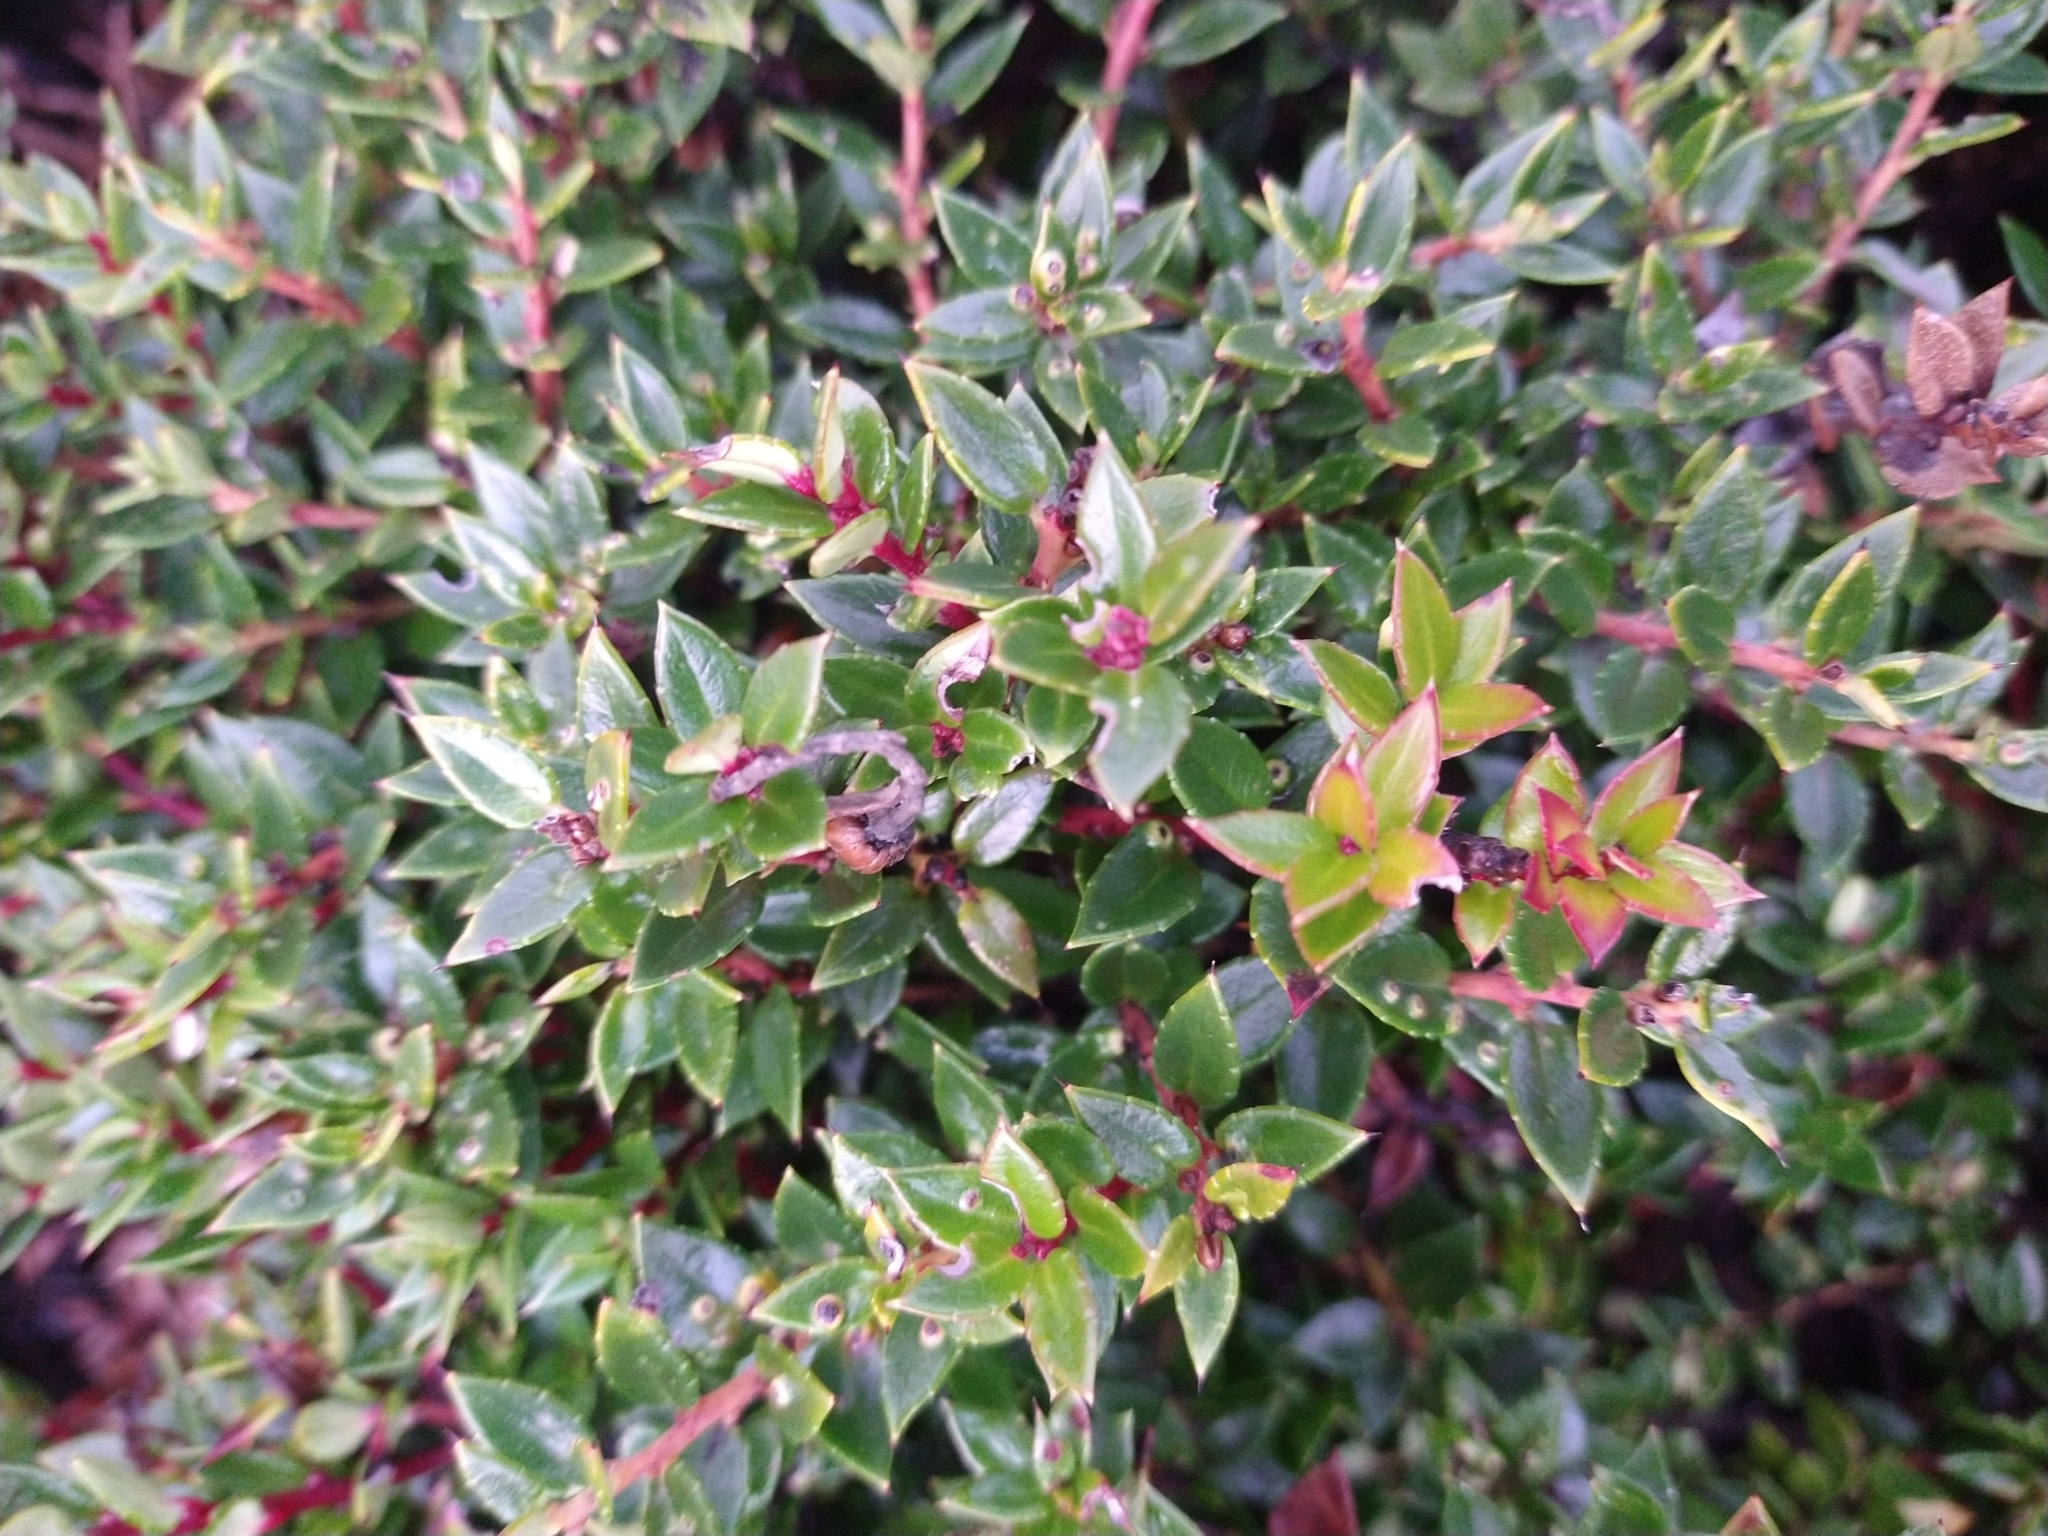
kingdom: Plantae
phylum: Tracheophyta
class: Magnoliopsida
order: Ericales
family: Ericaceae
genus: Gaultheria
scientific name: Gaultheria mucronata
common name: Prickly heath
